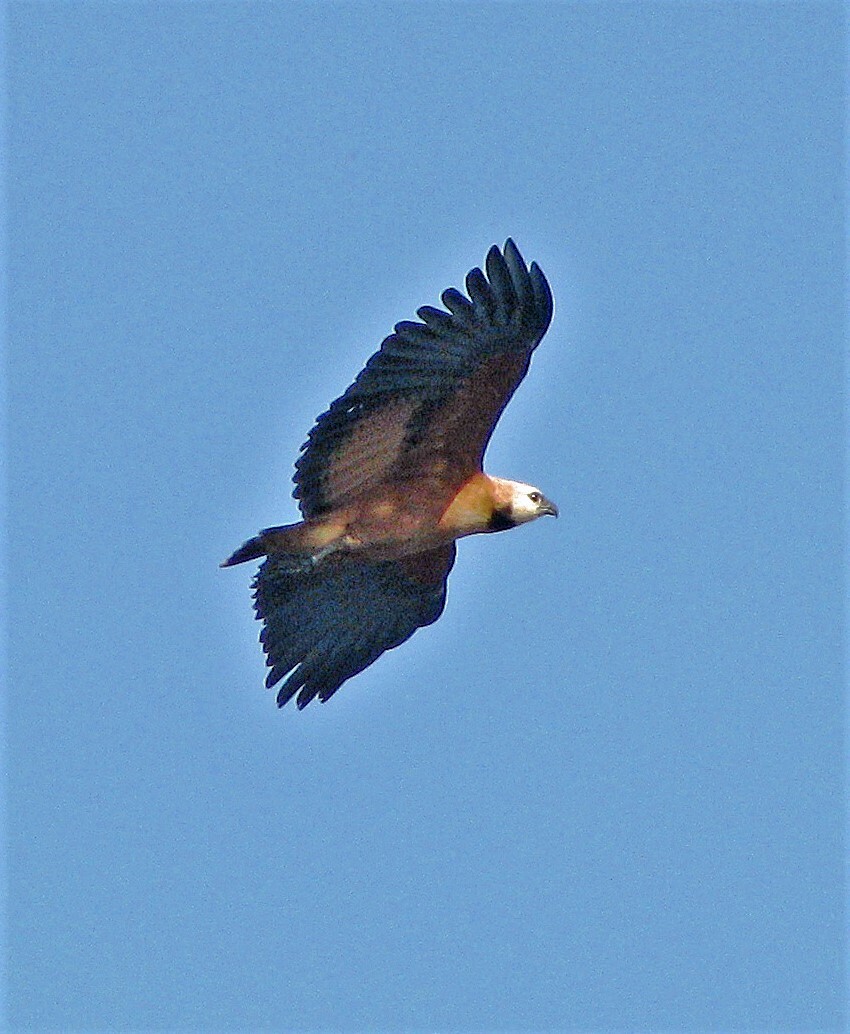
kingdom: Animalia
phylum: Chordata
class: Aves
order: Accipitriformes
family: Accipitridae
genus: Busarellus
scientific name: Busarellus nigricollis
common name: Black-collared hawk
